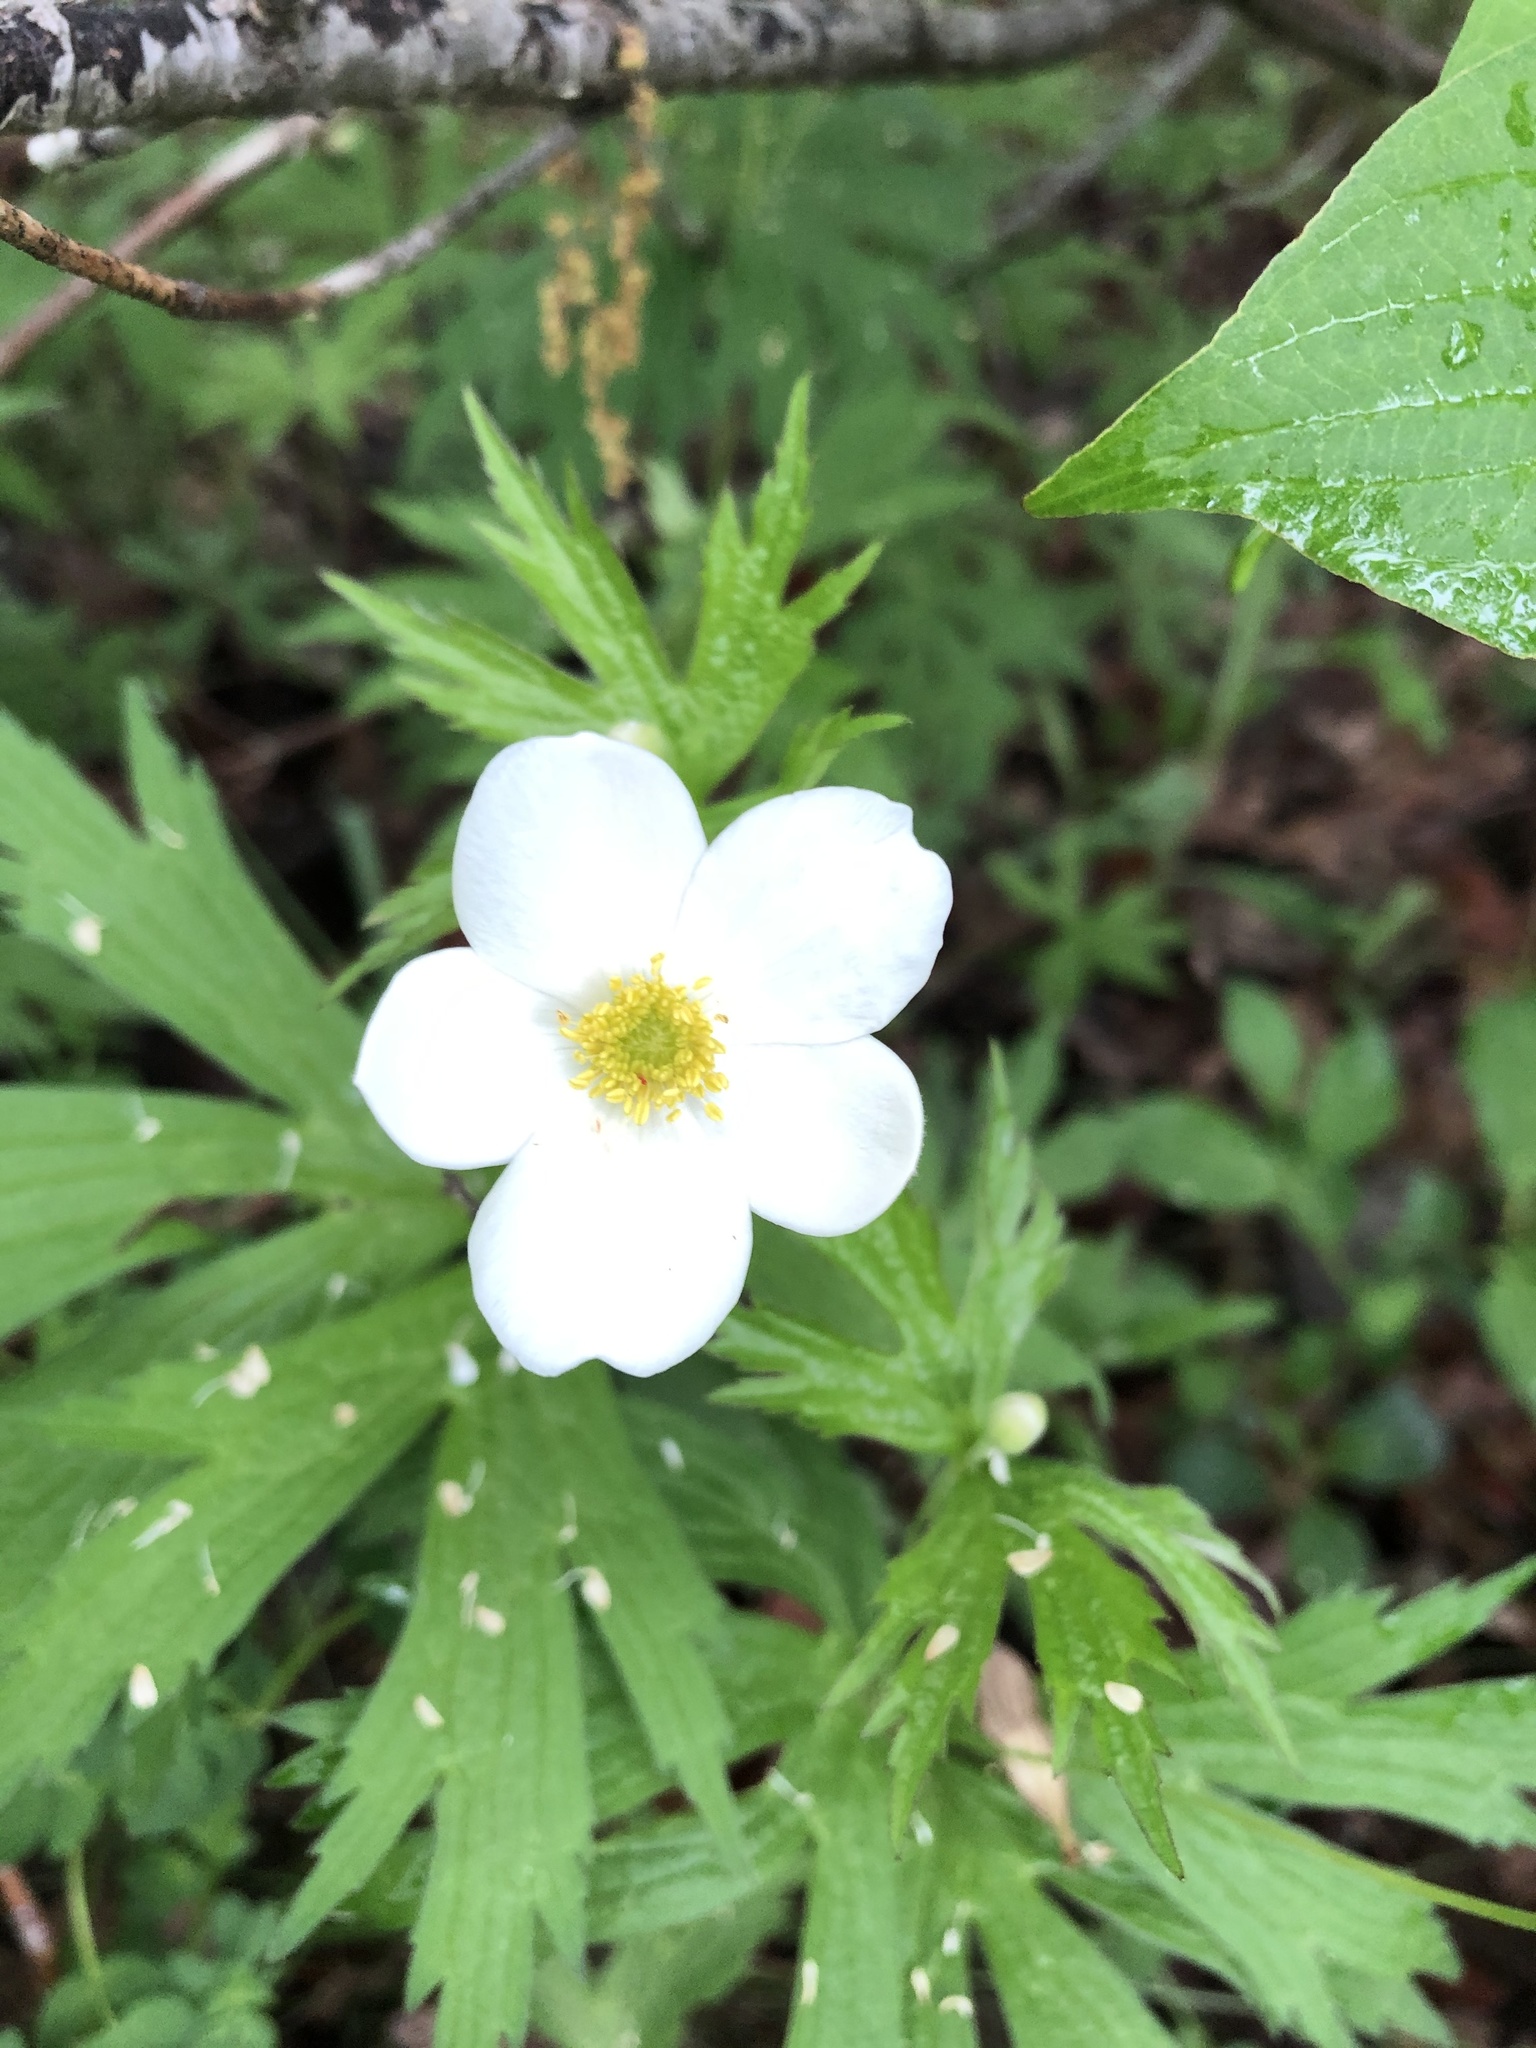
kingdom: Plantae
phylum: Tracheophyta
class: Magnoliopsida
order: Ranunculales
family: Ranunculaceae
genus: Anemonastrum
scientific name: Anemonastrum canadense
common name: Canada anemone
